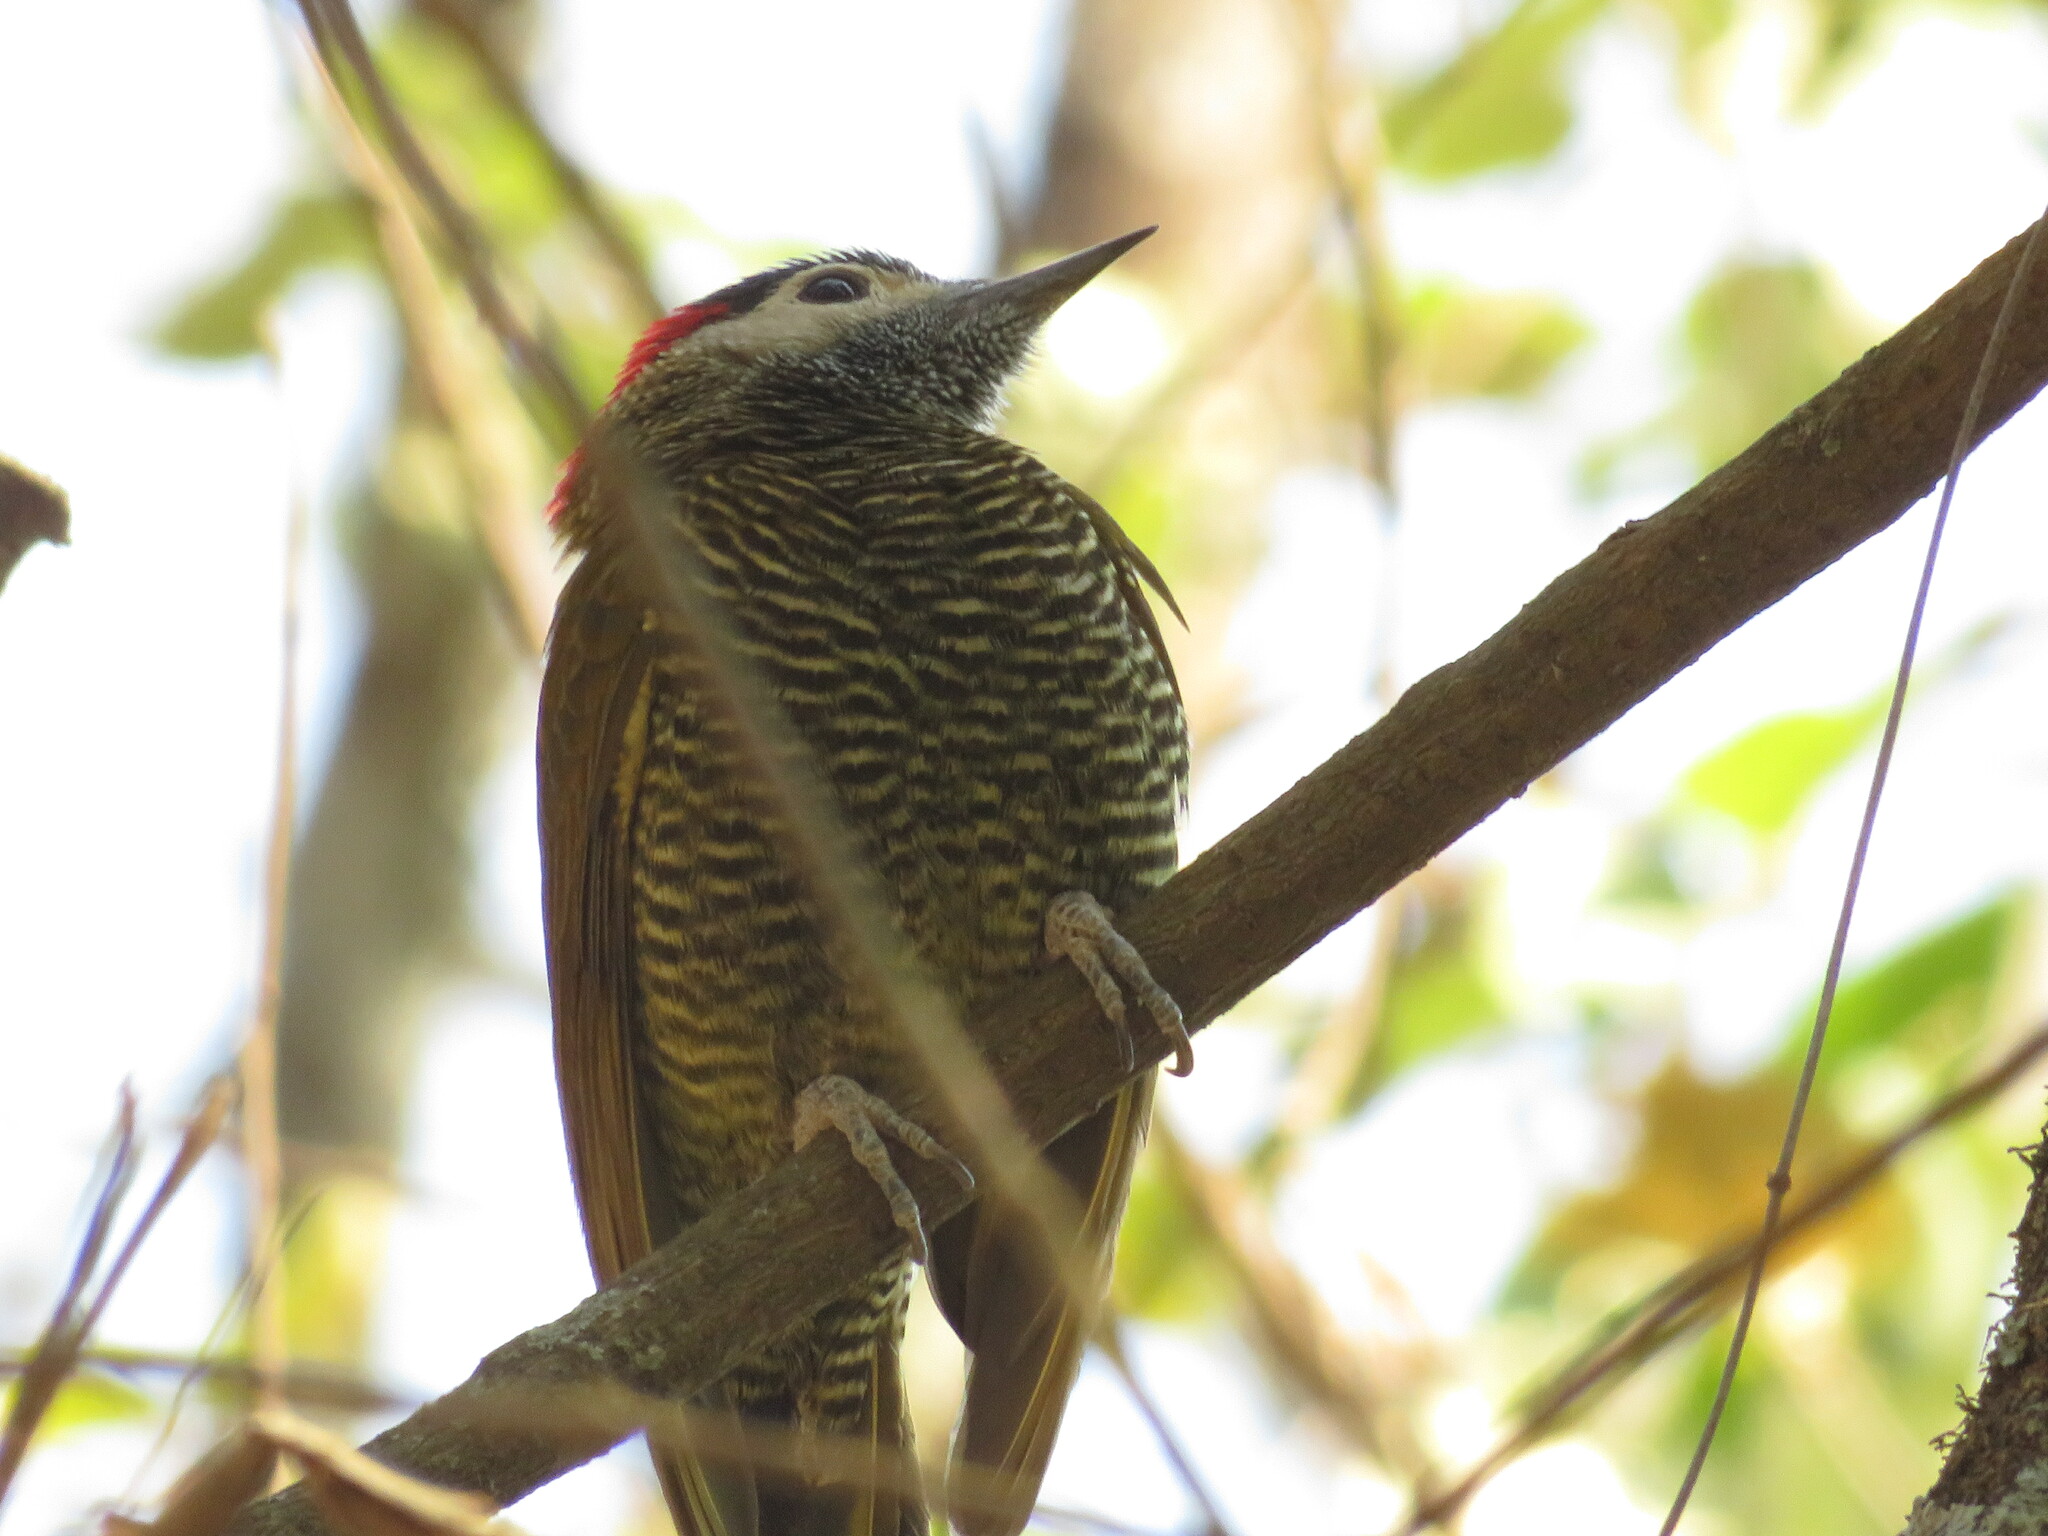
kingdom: Animalia
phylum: Chordata
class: Aves
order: Piciformes
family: Picidae
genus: Colaptes
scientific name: Colaptes rubiginosus
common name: Golden-olive woodpecker
